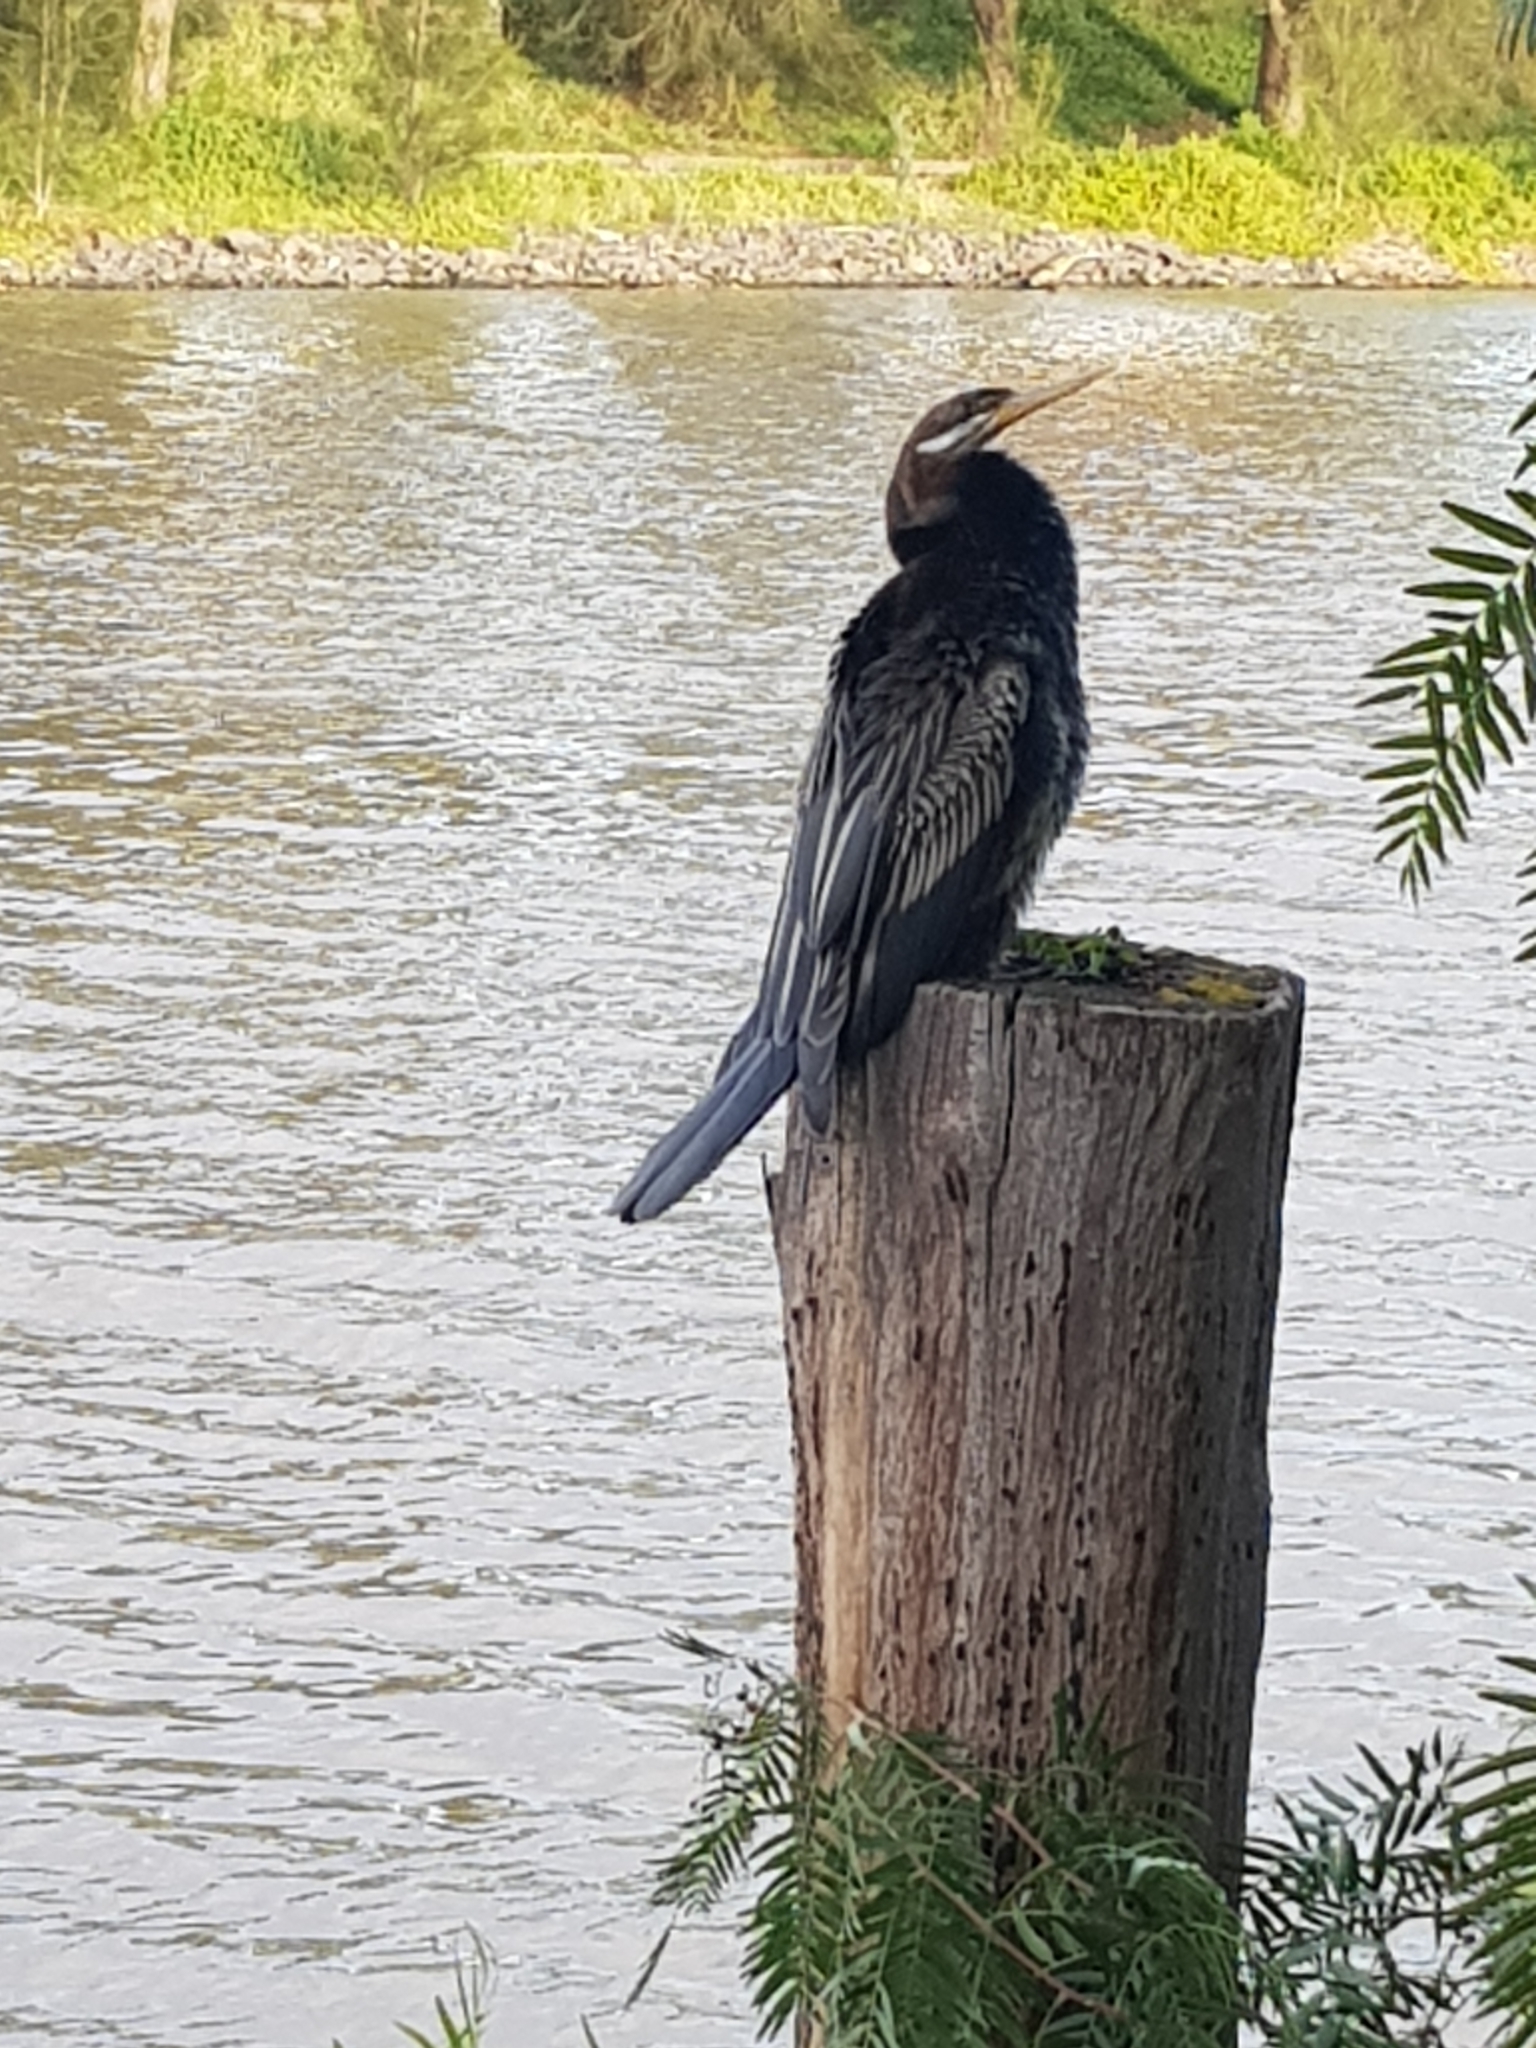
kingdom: Animalia
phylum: Chordata
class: Aves
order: Suliformes
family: Anhingidae
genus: Anhinga
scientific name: Anhinga novaehollandiae
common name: Australasian darter
